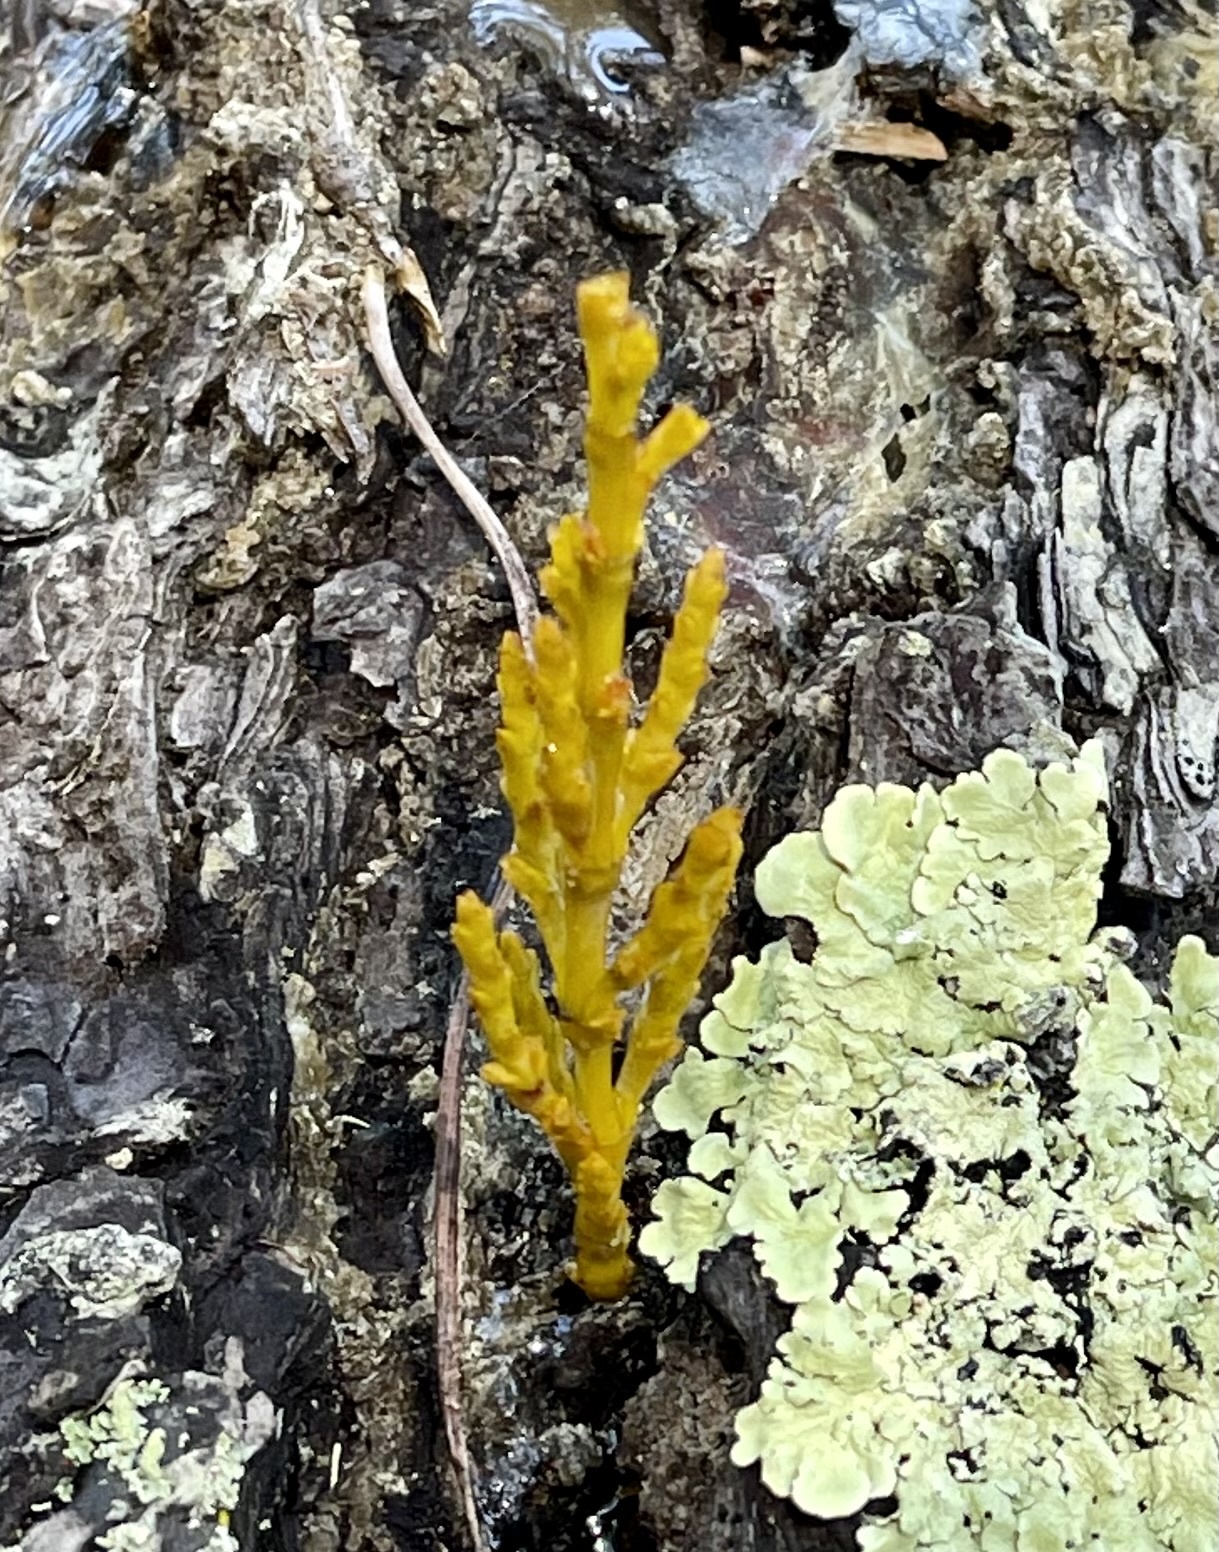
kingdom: Plantae
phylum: Tracheophyta
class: Magnoliopsida
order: Santalales
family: Viscaceae
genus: Arceuthobium
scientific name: Arceuthobium campylopodum
